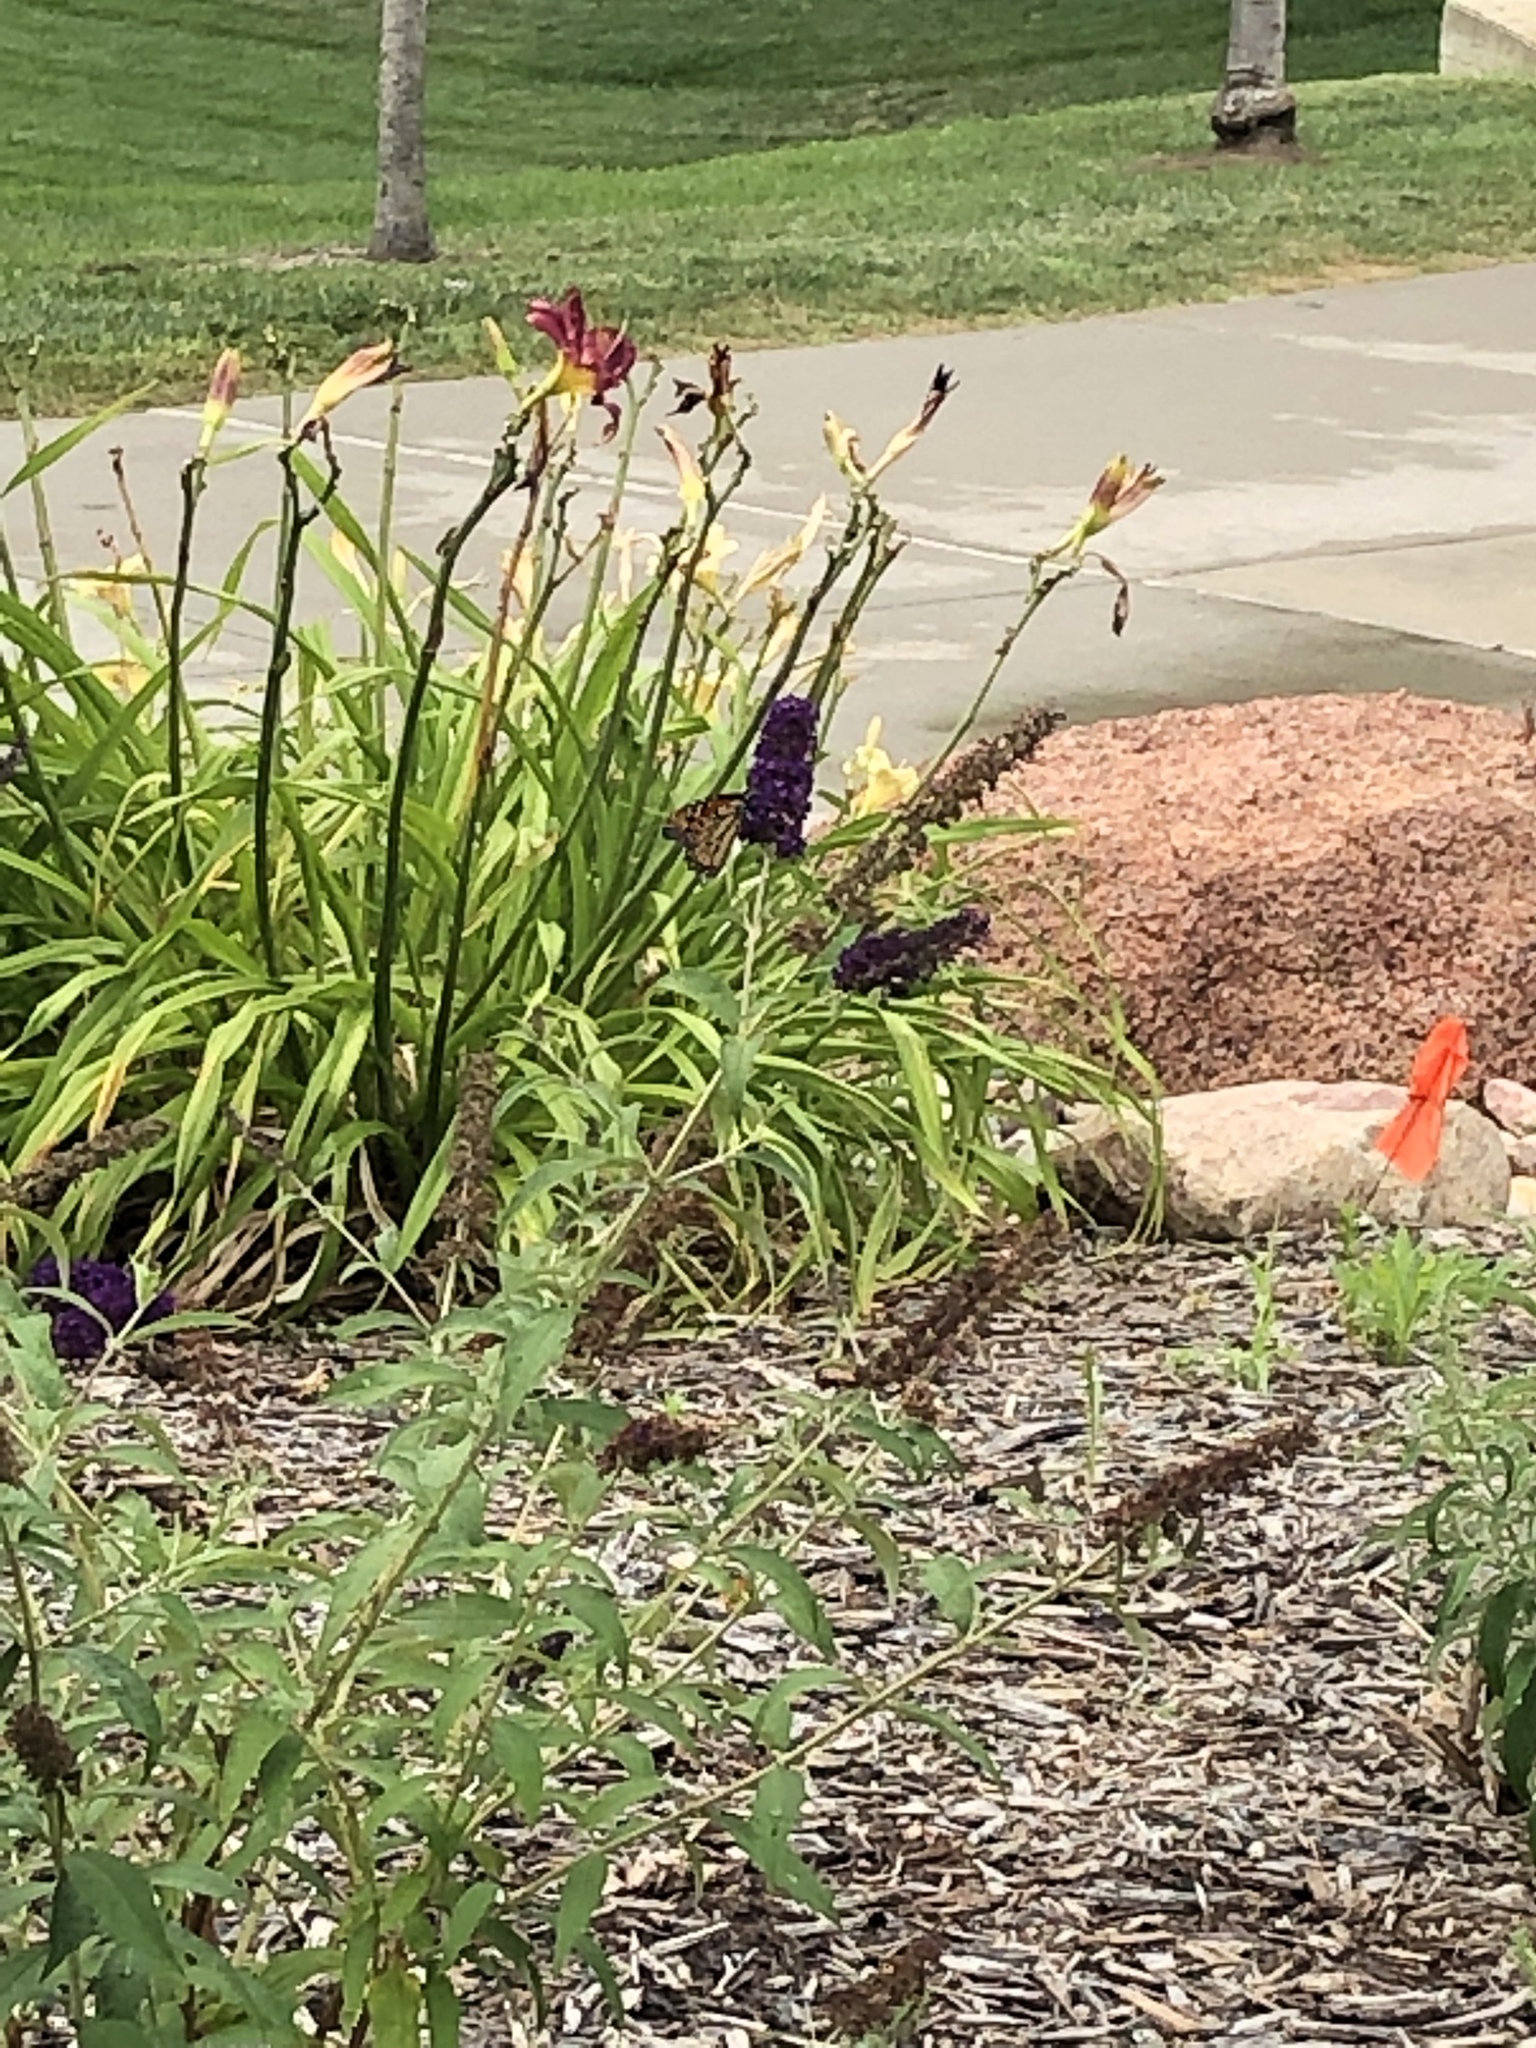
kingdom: Animalia
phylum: Arthropoda
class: Insecta
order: Lepidoptera
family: Nymphalidae
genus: Danaus
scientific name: Danaus plexippus
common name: Monarch
